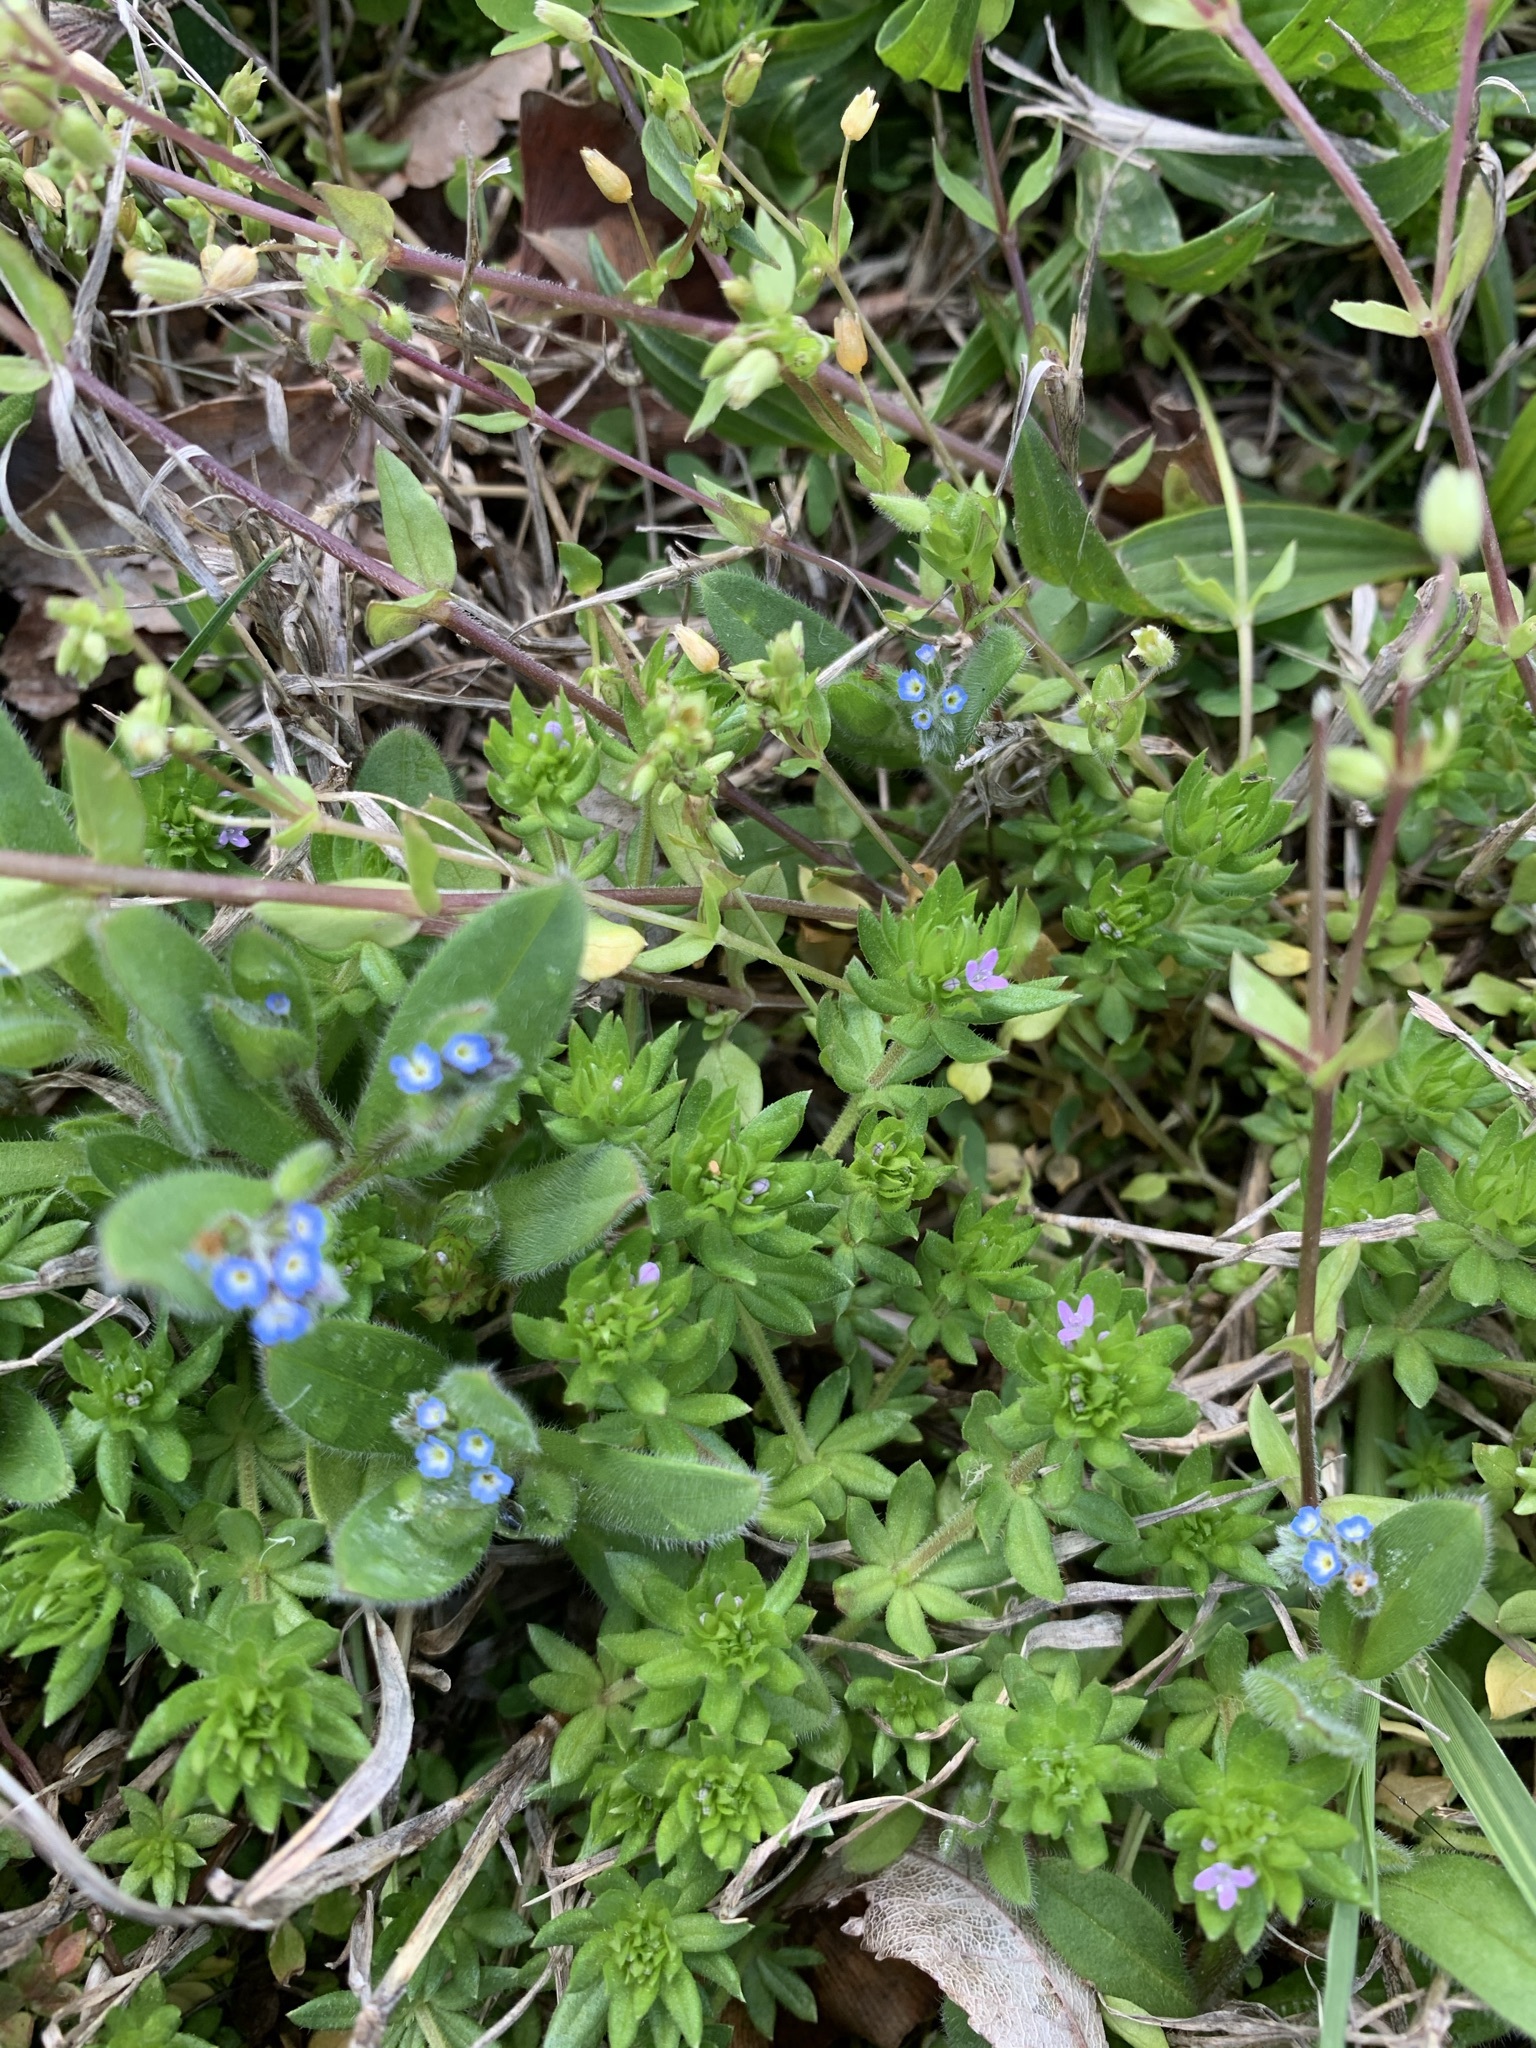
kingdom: Plantae
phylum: Tracheophyta
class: Magnoliopsida
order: Boraginales
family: Boraginaceae
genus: Myosotis
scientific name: Myosotis ramosissima
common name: Early forget-me-not
